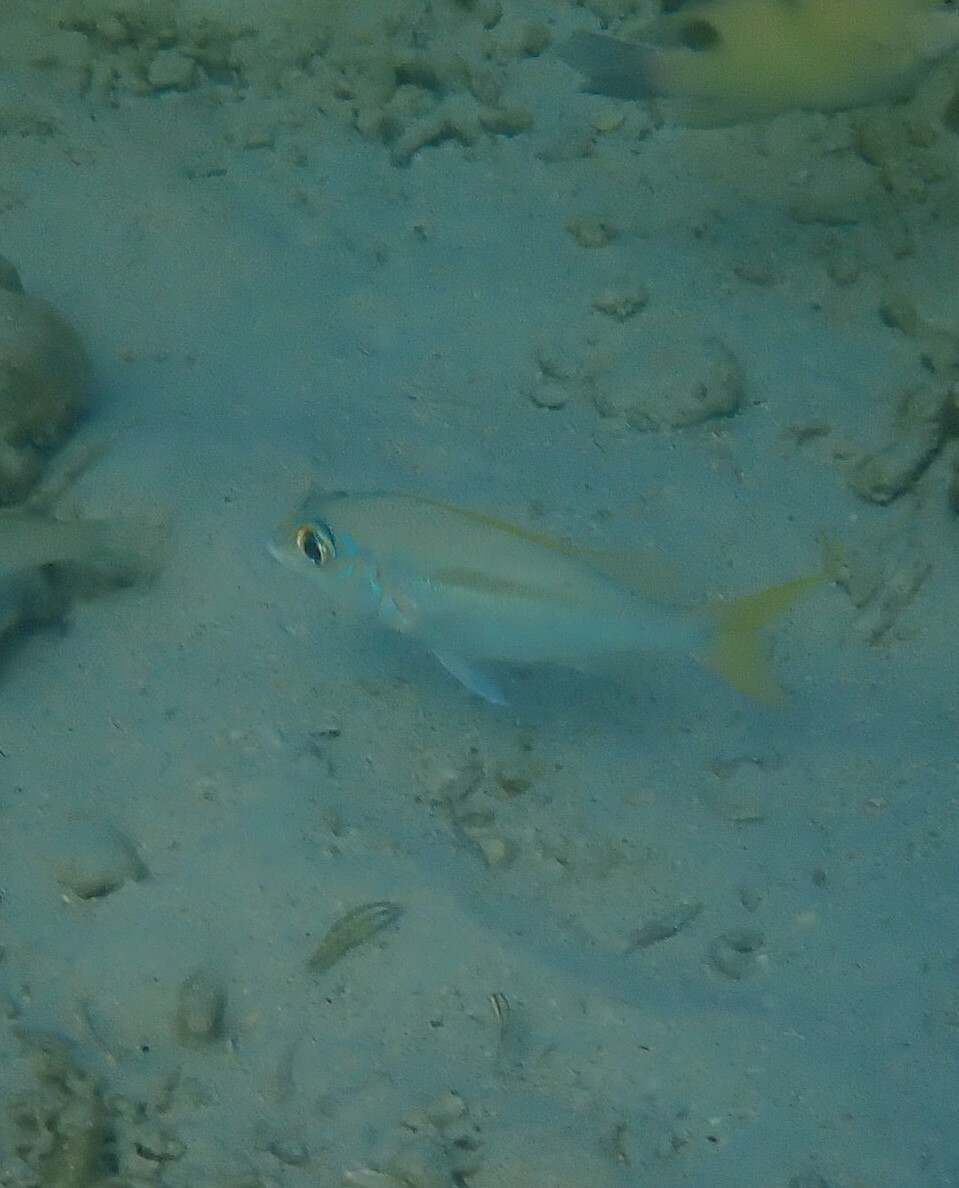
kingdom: Animalia
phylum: Chordata
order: Perciformes
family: Nemipteridae
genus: Scolopsis
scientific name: Scolopsis monogramma
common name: Monogrammed monocle bream
